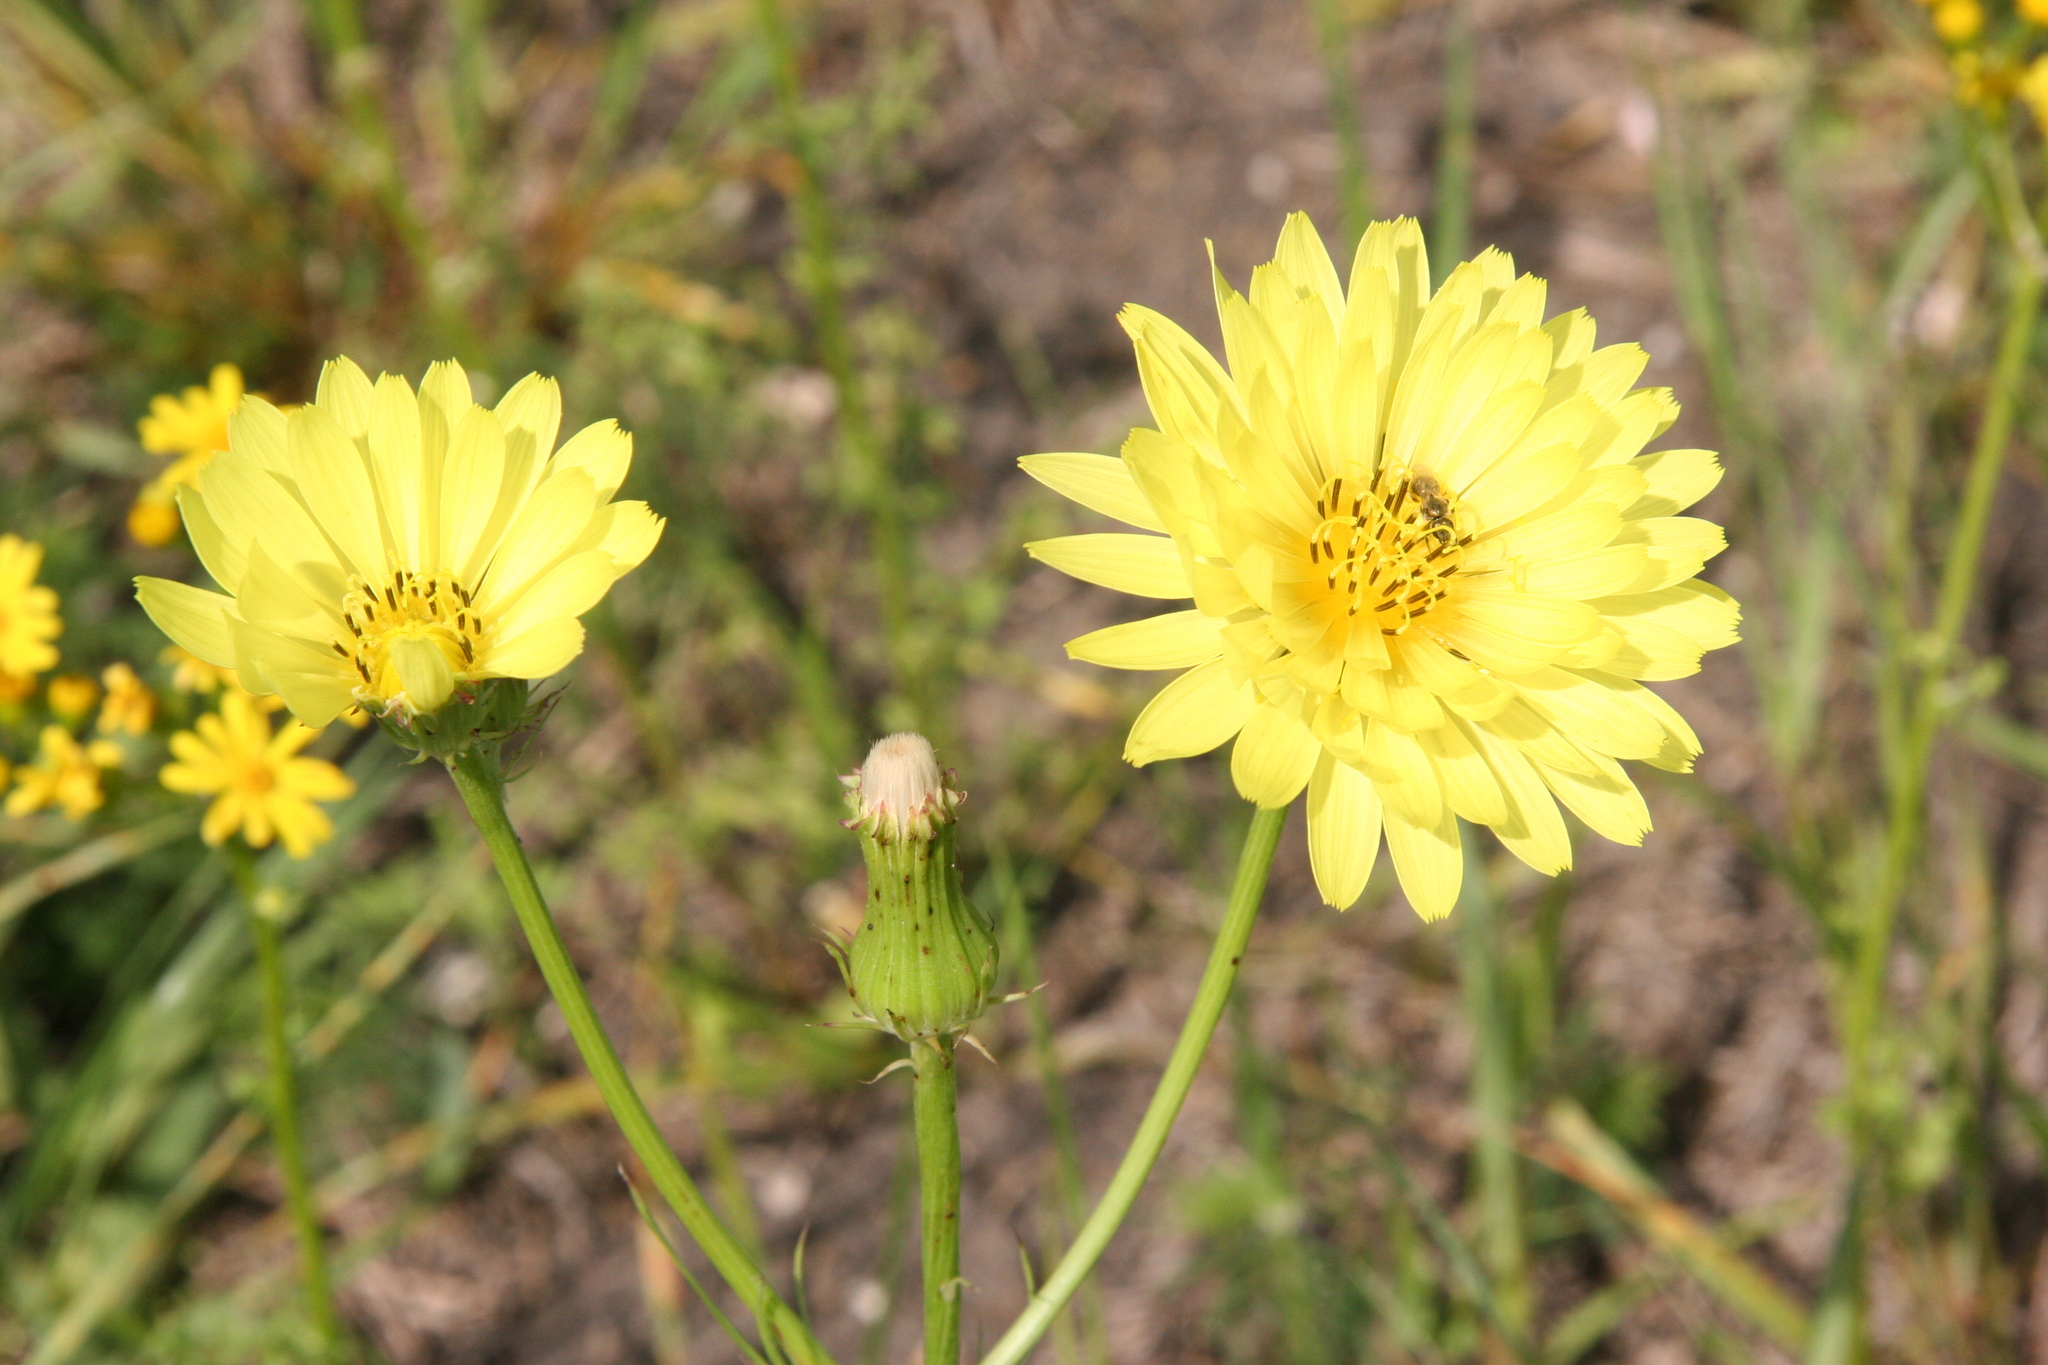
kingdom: Plantae
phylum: Tracheophyta
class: Magnoliopsida
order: Asterales
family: Asteraceae
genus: Pyrrhopappus
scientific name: Pyrrhopappus pauciflorus
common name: Texas false dandelion
